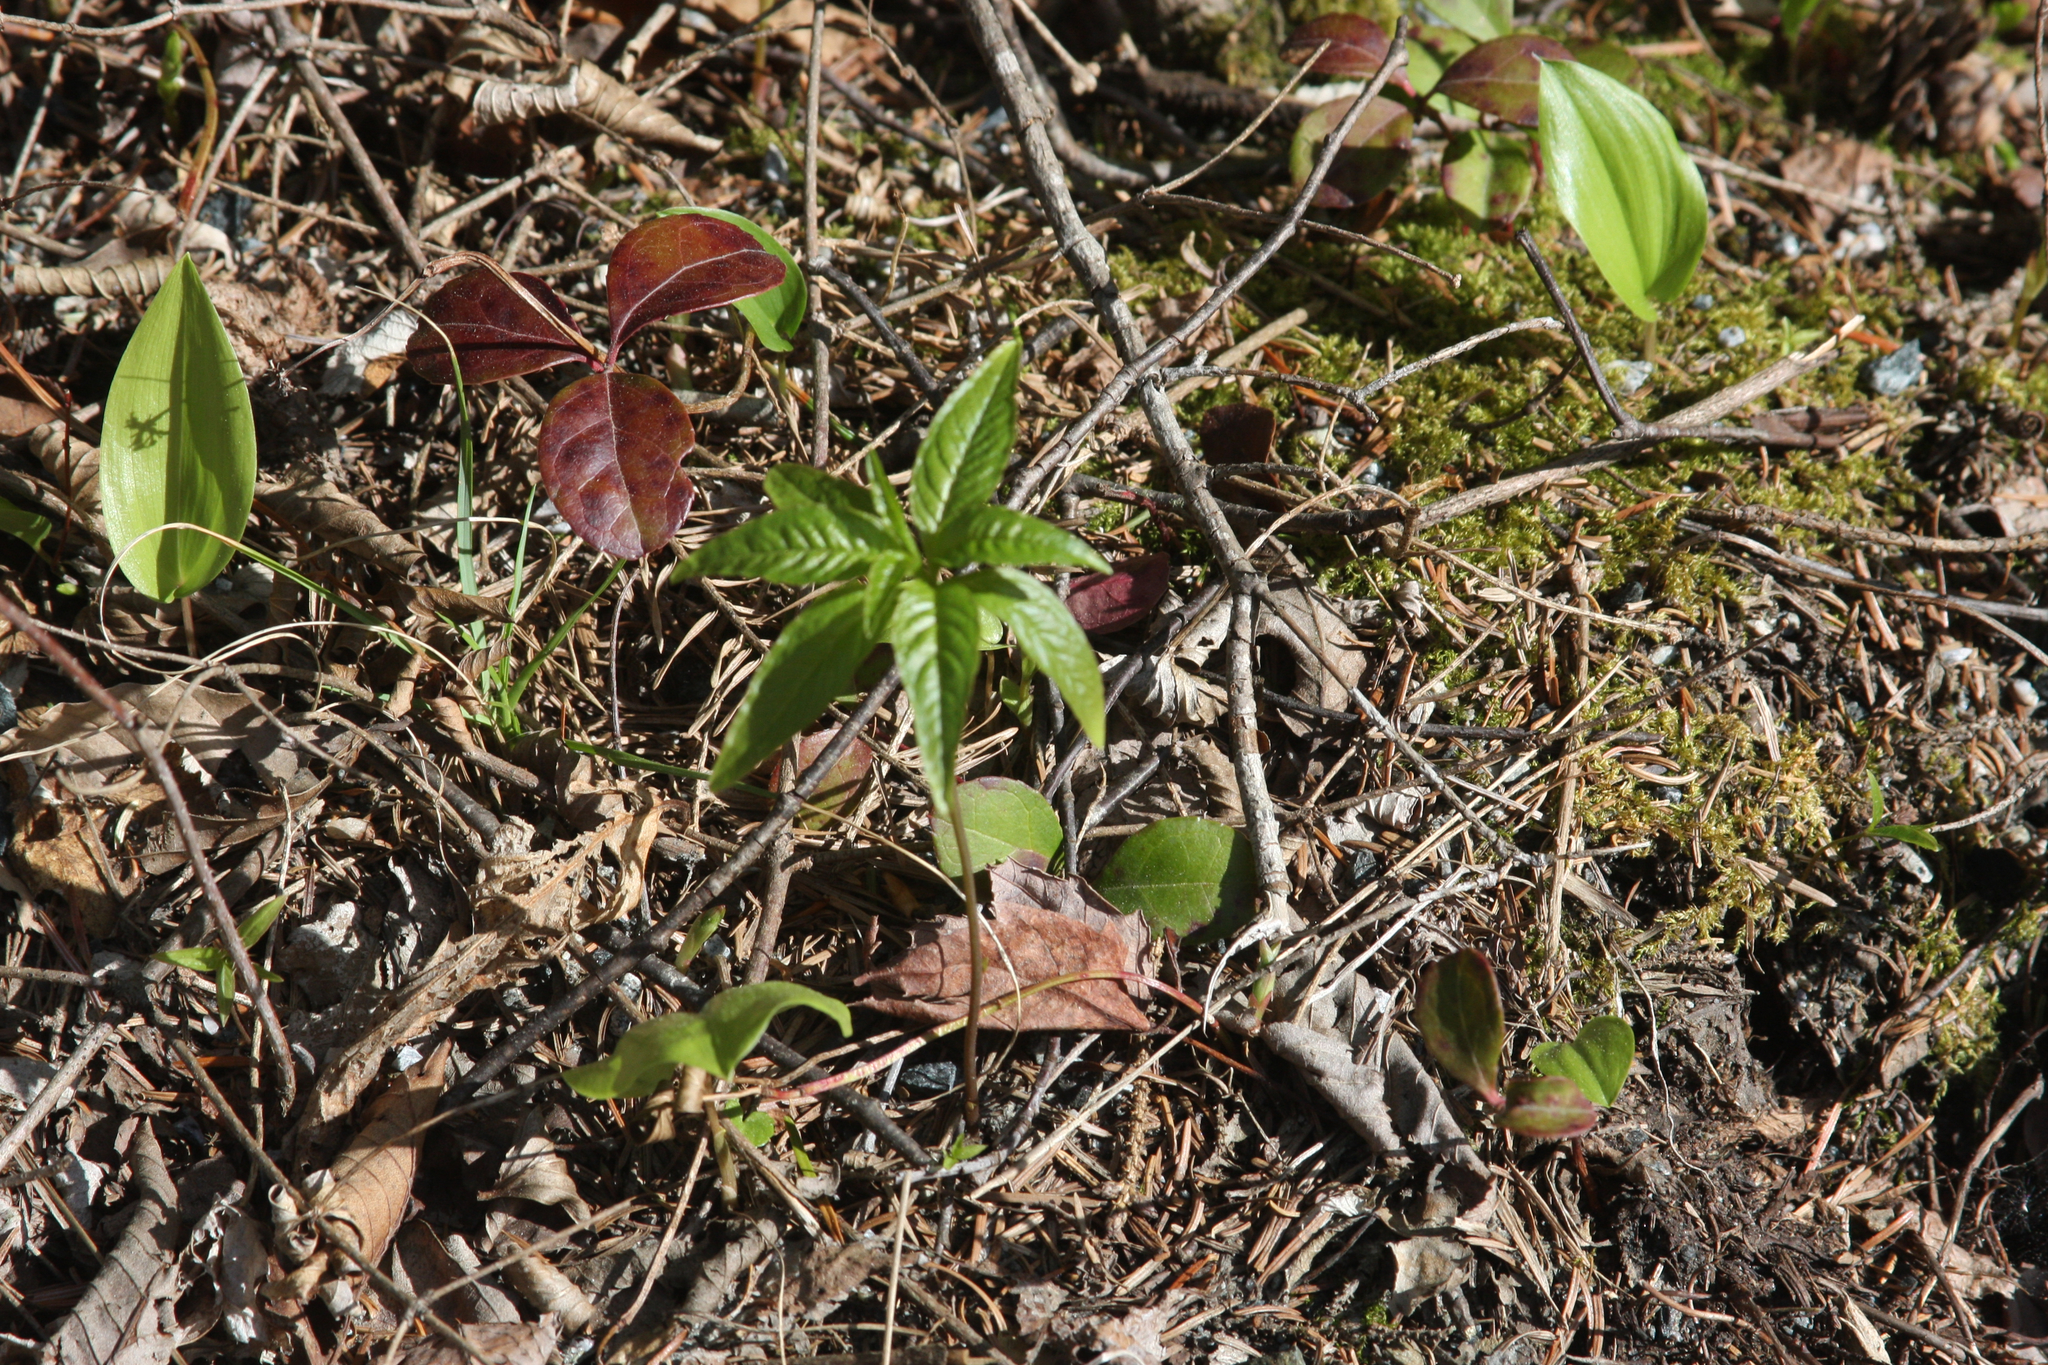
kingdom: Plantae
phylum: Tracheophyta
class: Magnoliopsida
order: Ericales
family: Primulaceae
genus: Lysimachia
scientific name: Lysimachia borealis
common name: American starflower
